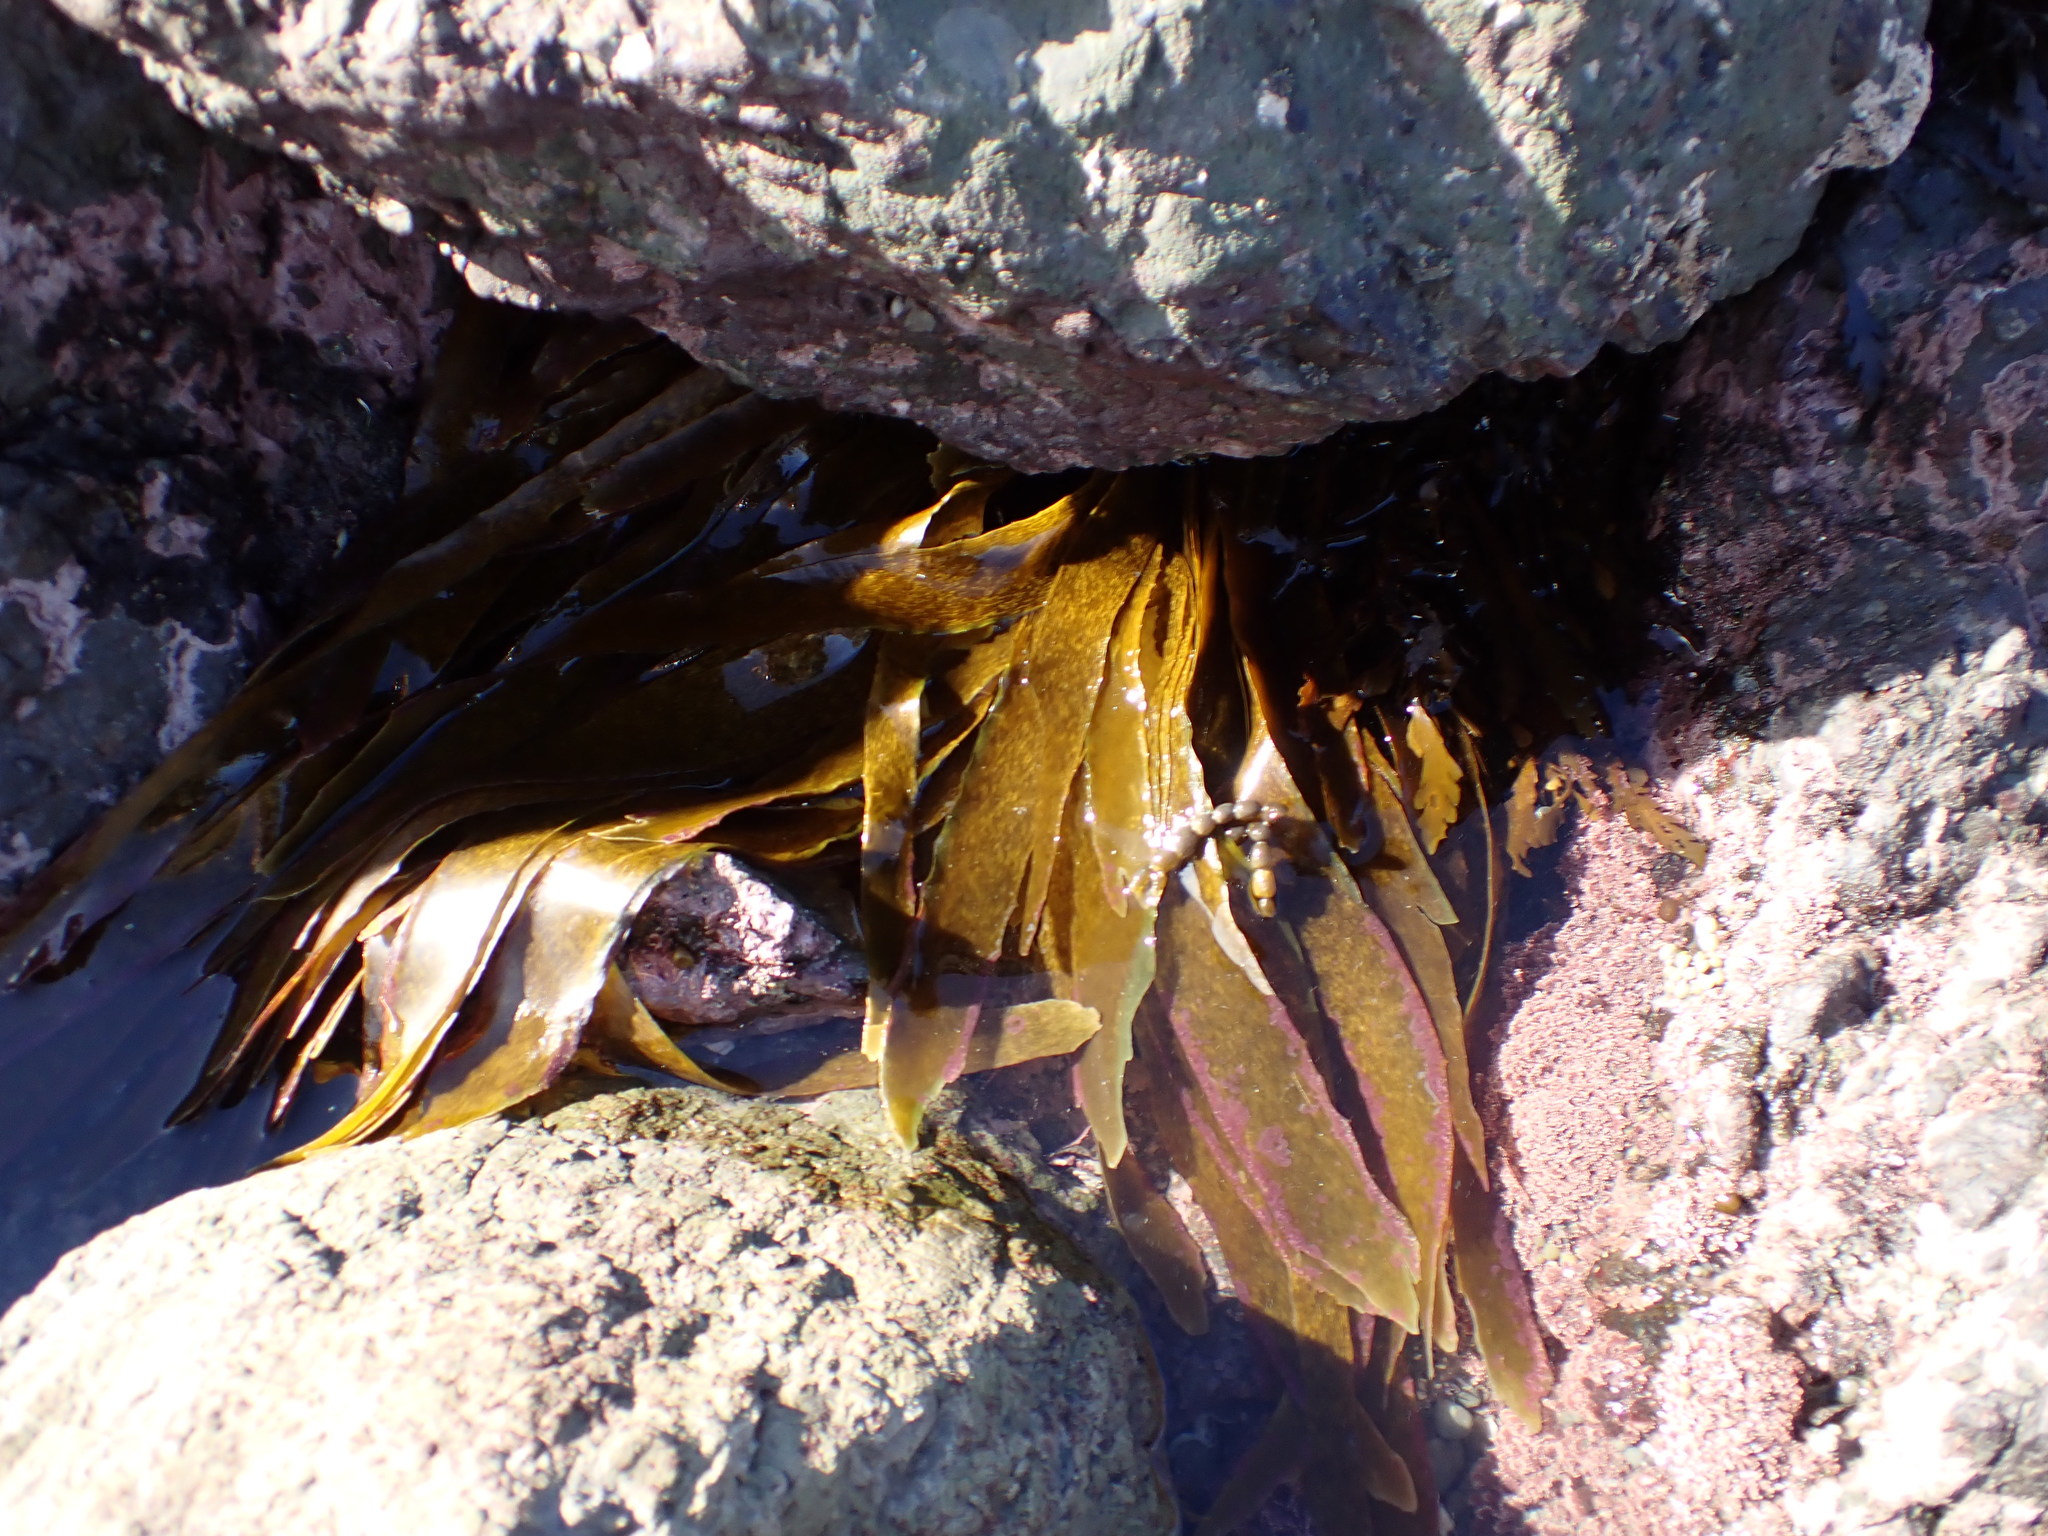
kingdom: Chromista
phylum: Ochrophyta
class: Phaeophyceae
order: Laminariales
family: Lessoniaceae
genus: Lessonia
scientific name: Lessonia variegata
